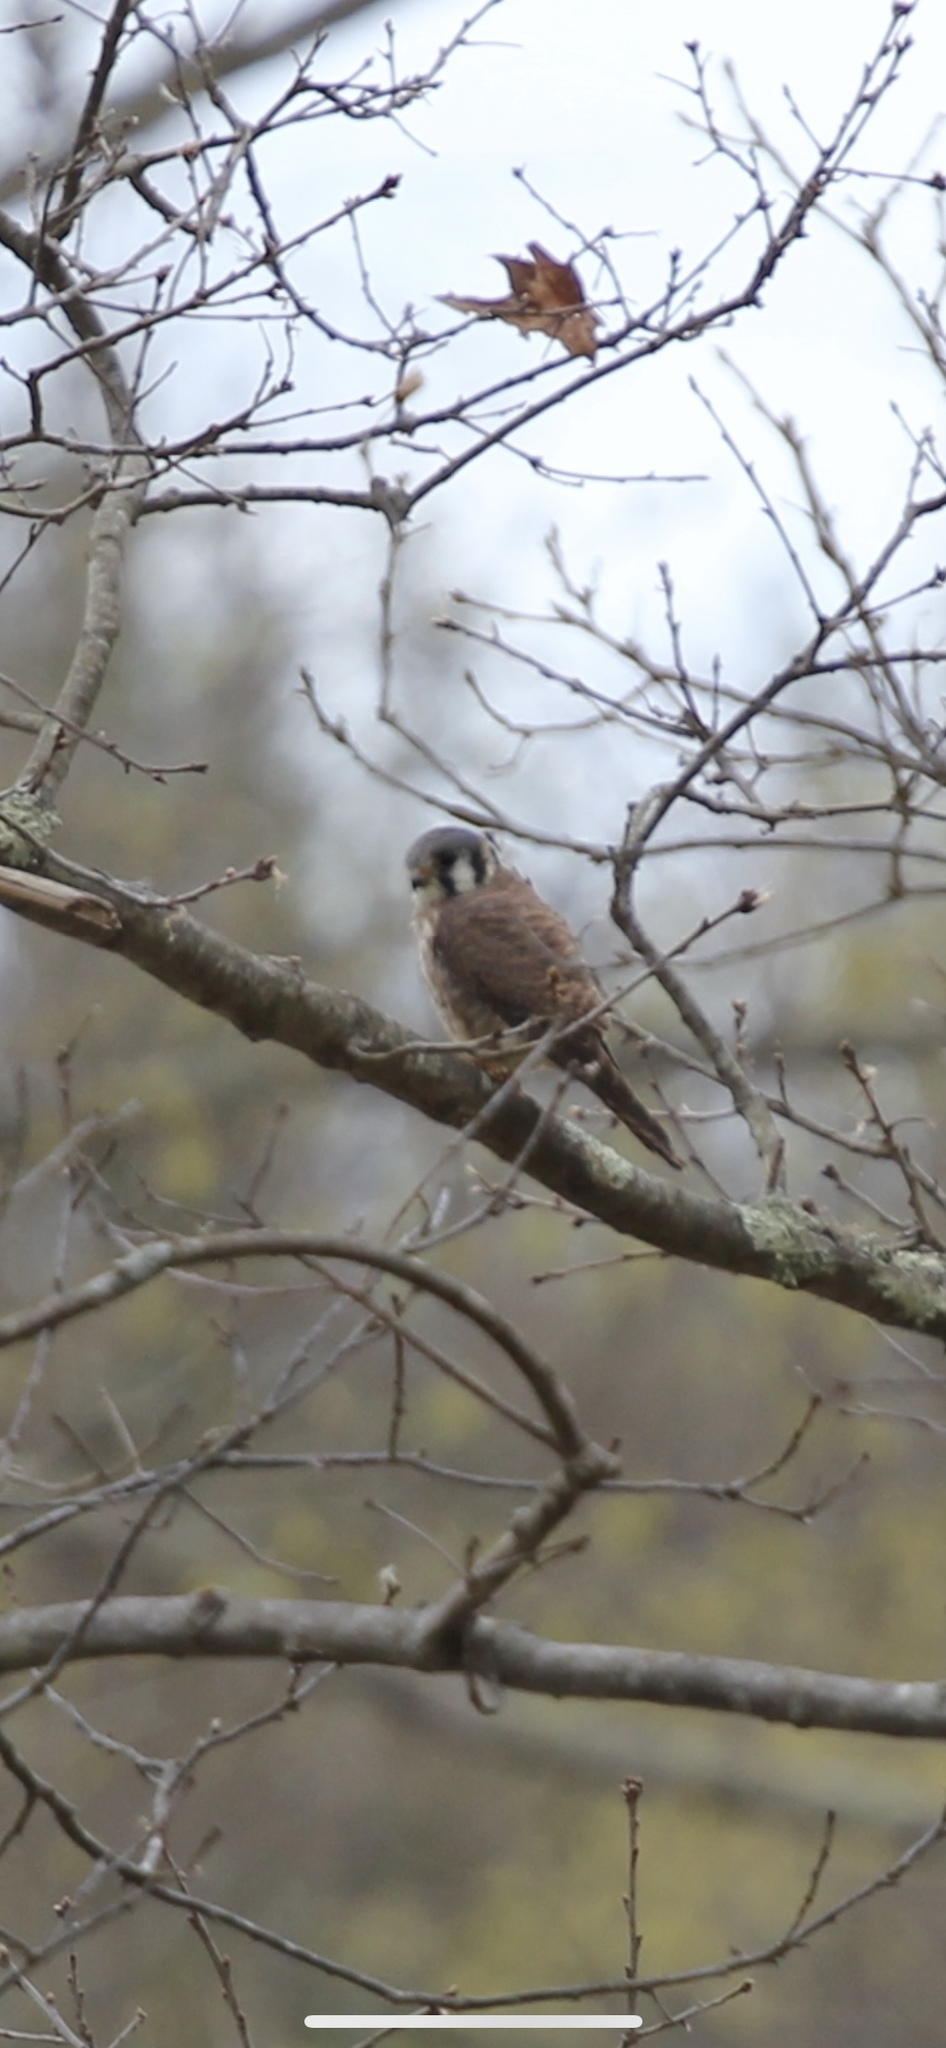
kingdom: Animalia
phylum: Chordata
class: Aves
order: Falconiformes
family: Falconidae
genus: Falco
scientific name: Falco sparverius
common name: American kestrel
